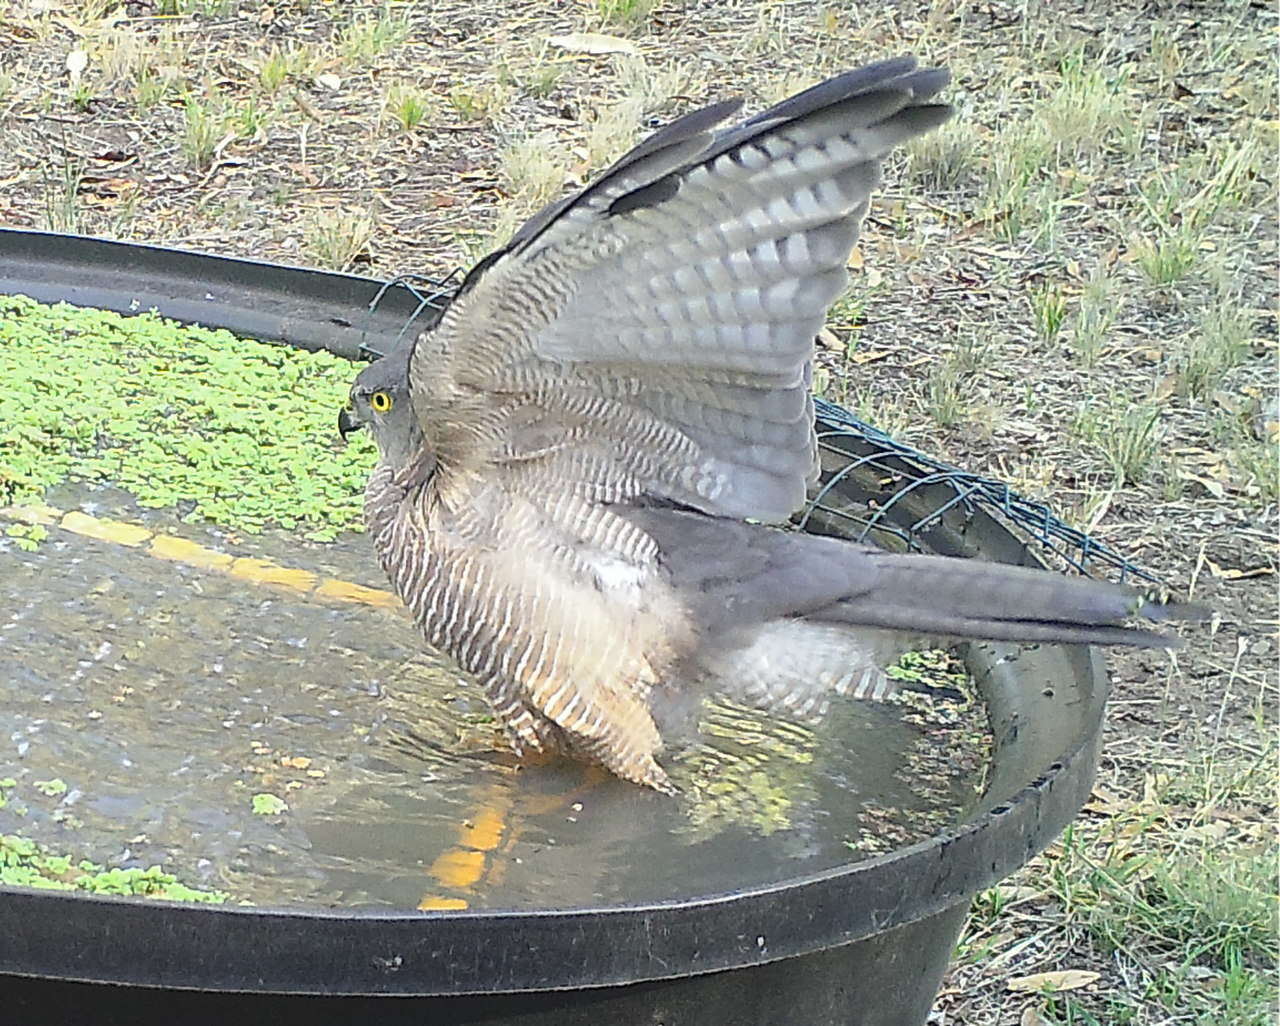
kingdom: Animalia
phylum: Chordata
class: Aves
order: Accipitriformes
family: Accipitridae
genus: Accipiter
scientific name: Accipiter fasciatus
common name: Brown goshawk
